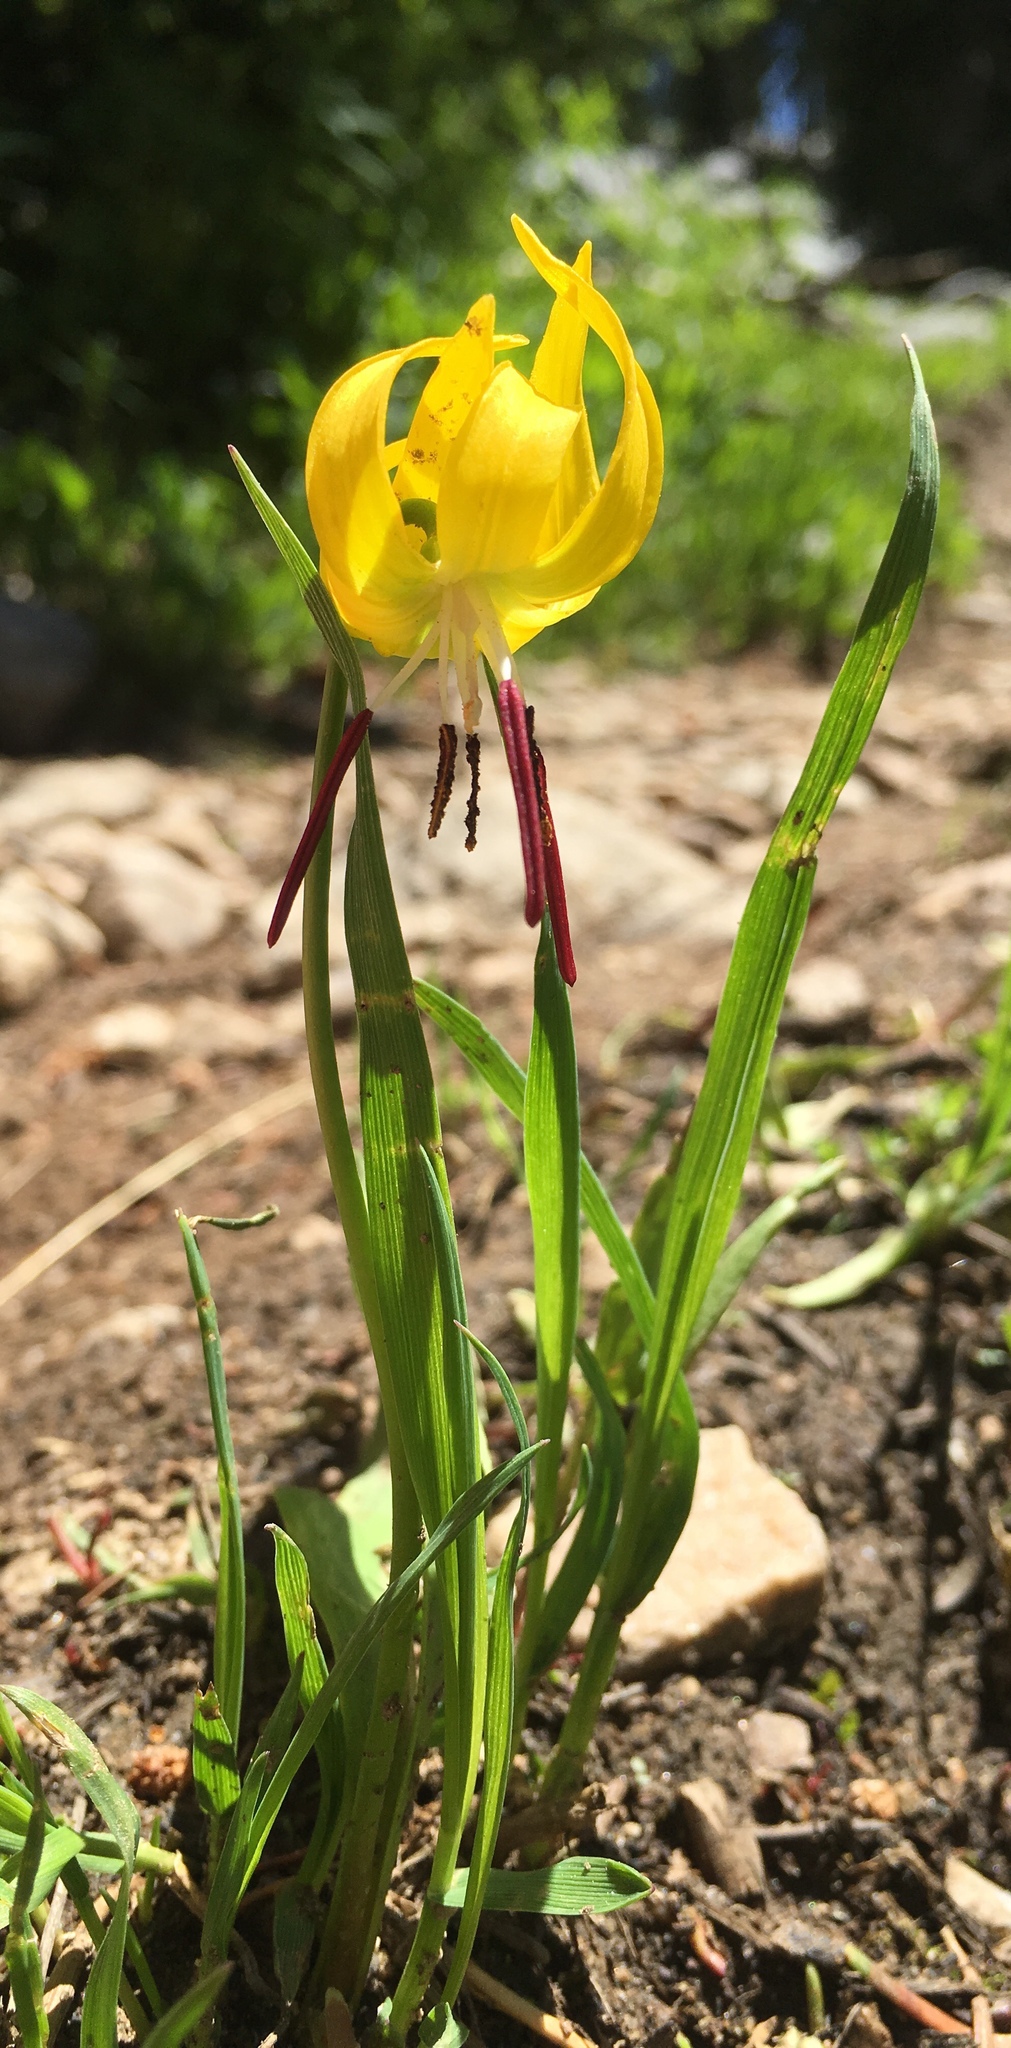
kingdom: Plantae
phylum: Tracheophyta
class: Liliopsida
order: Liliales
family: Liliaceae
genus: Erythronium
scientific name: Erythronium grandiflorum
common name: Avalanche-lily
